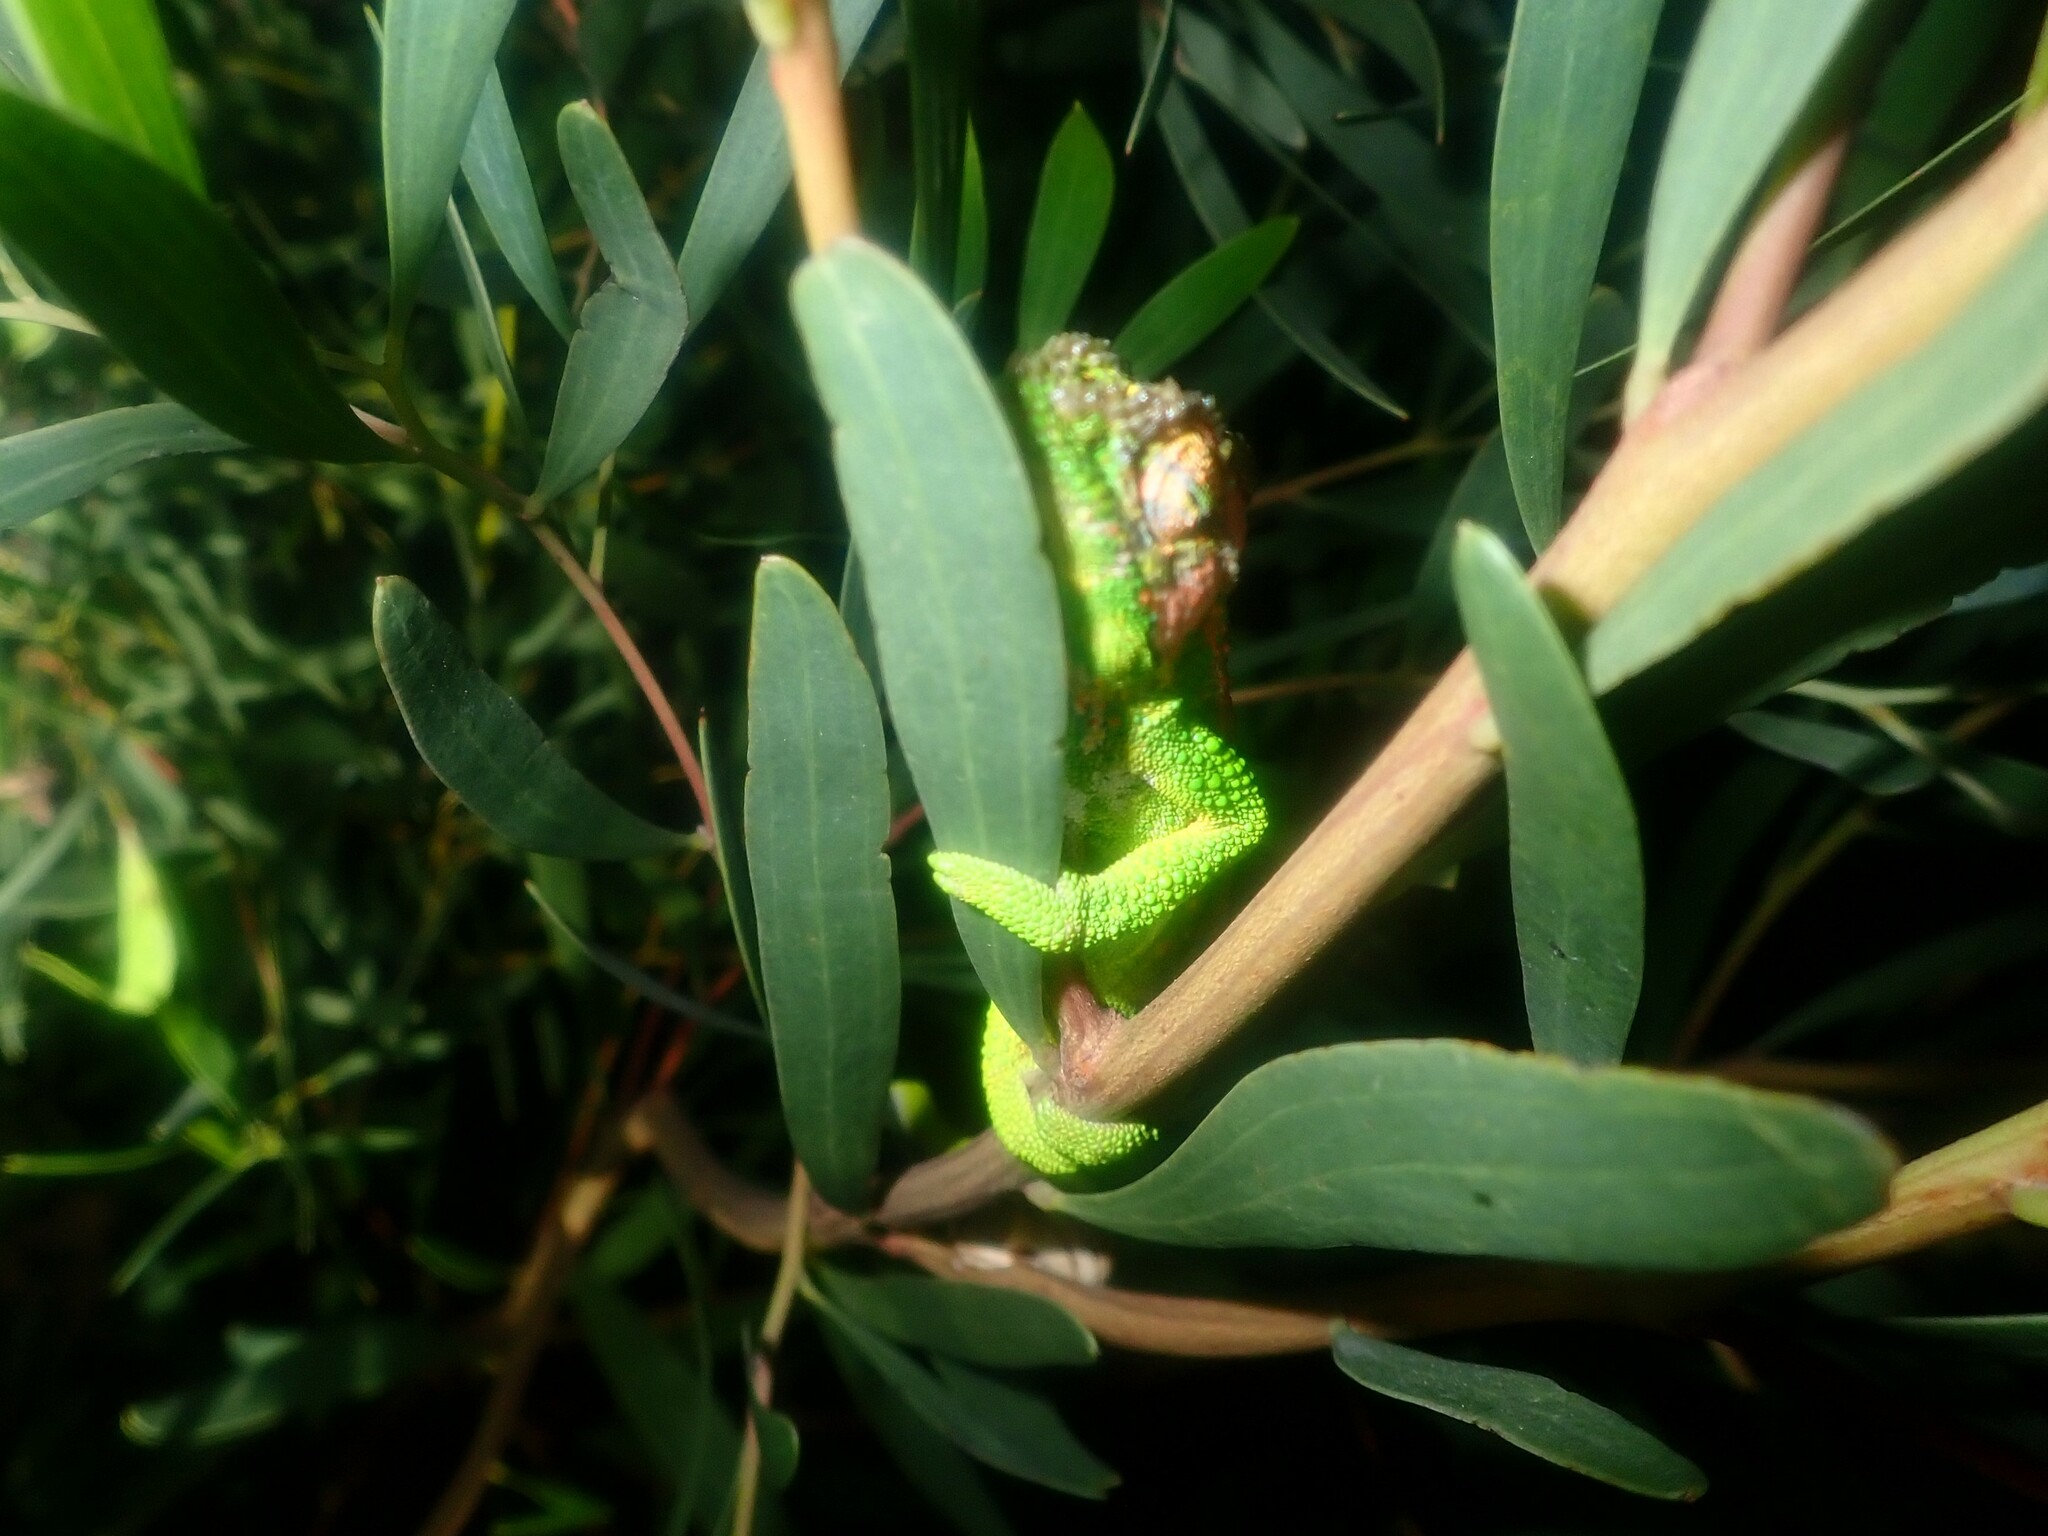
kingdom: Animalia
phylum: Chordata
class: Squamata
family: Chamaeleonidae
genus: Bradypodion
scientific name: Bradypodion pumilum
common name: Cape dwarf chameleon
